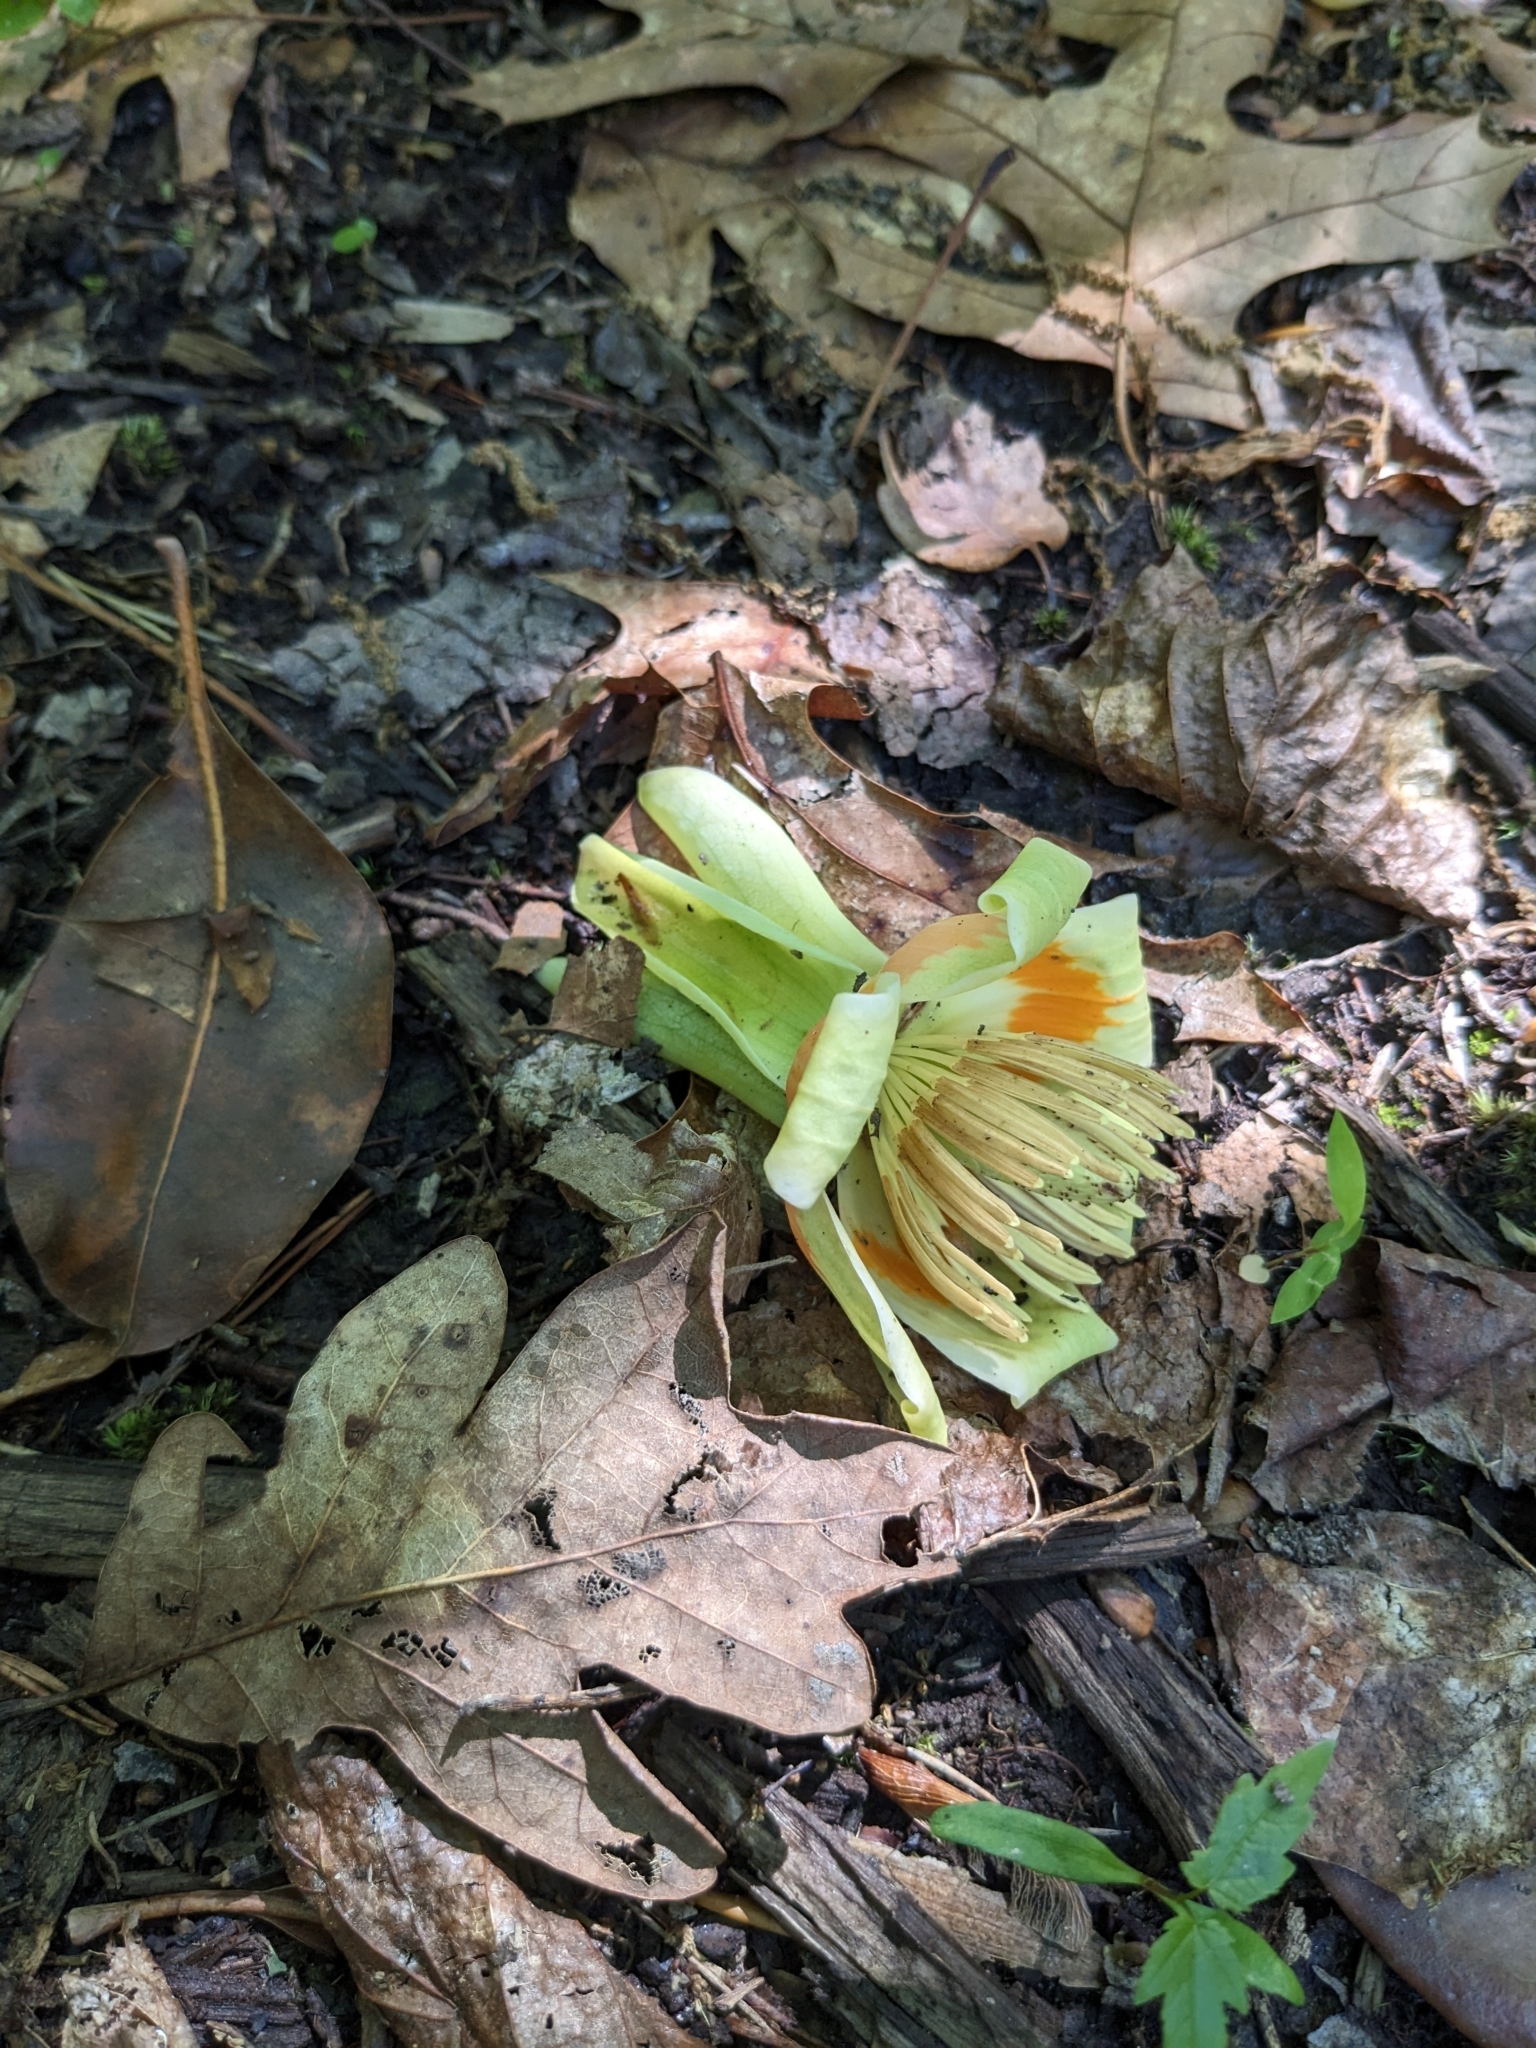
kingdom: Plantae
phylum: Tracheophyta
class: Magnoliopsida
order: Magnoliales
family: Magnoliaceae
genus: Liriodendron
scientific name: Liriodendron tulipifera
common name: Tulip tree
